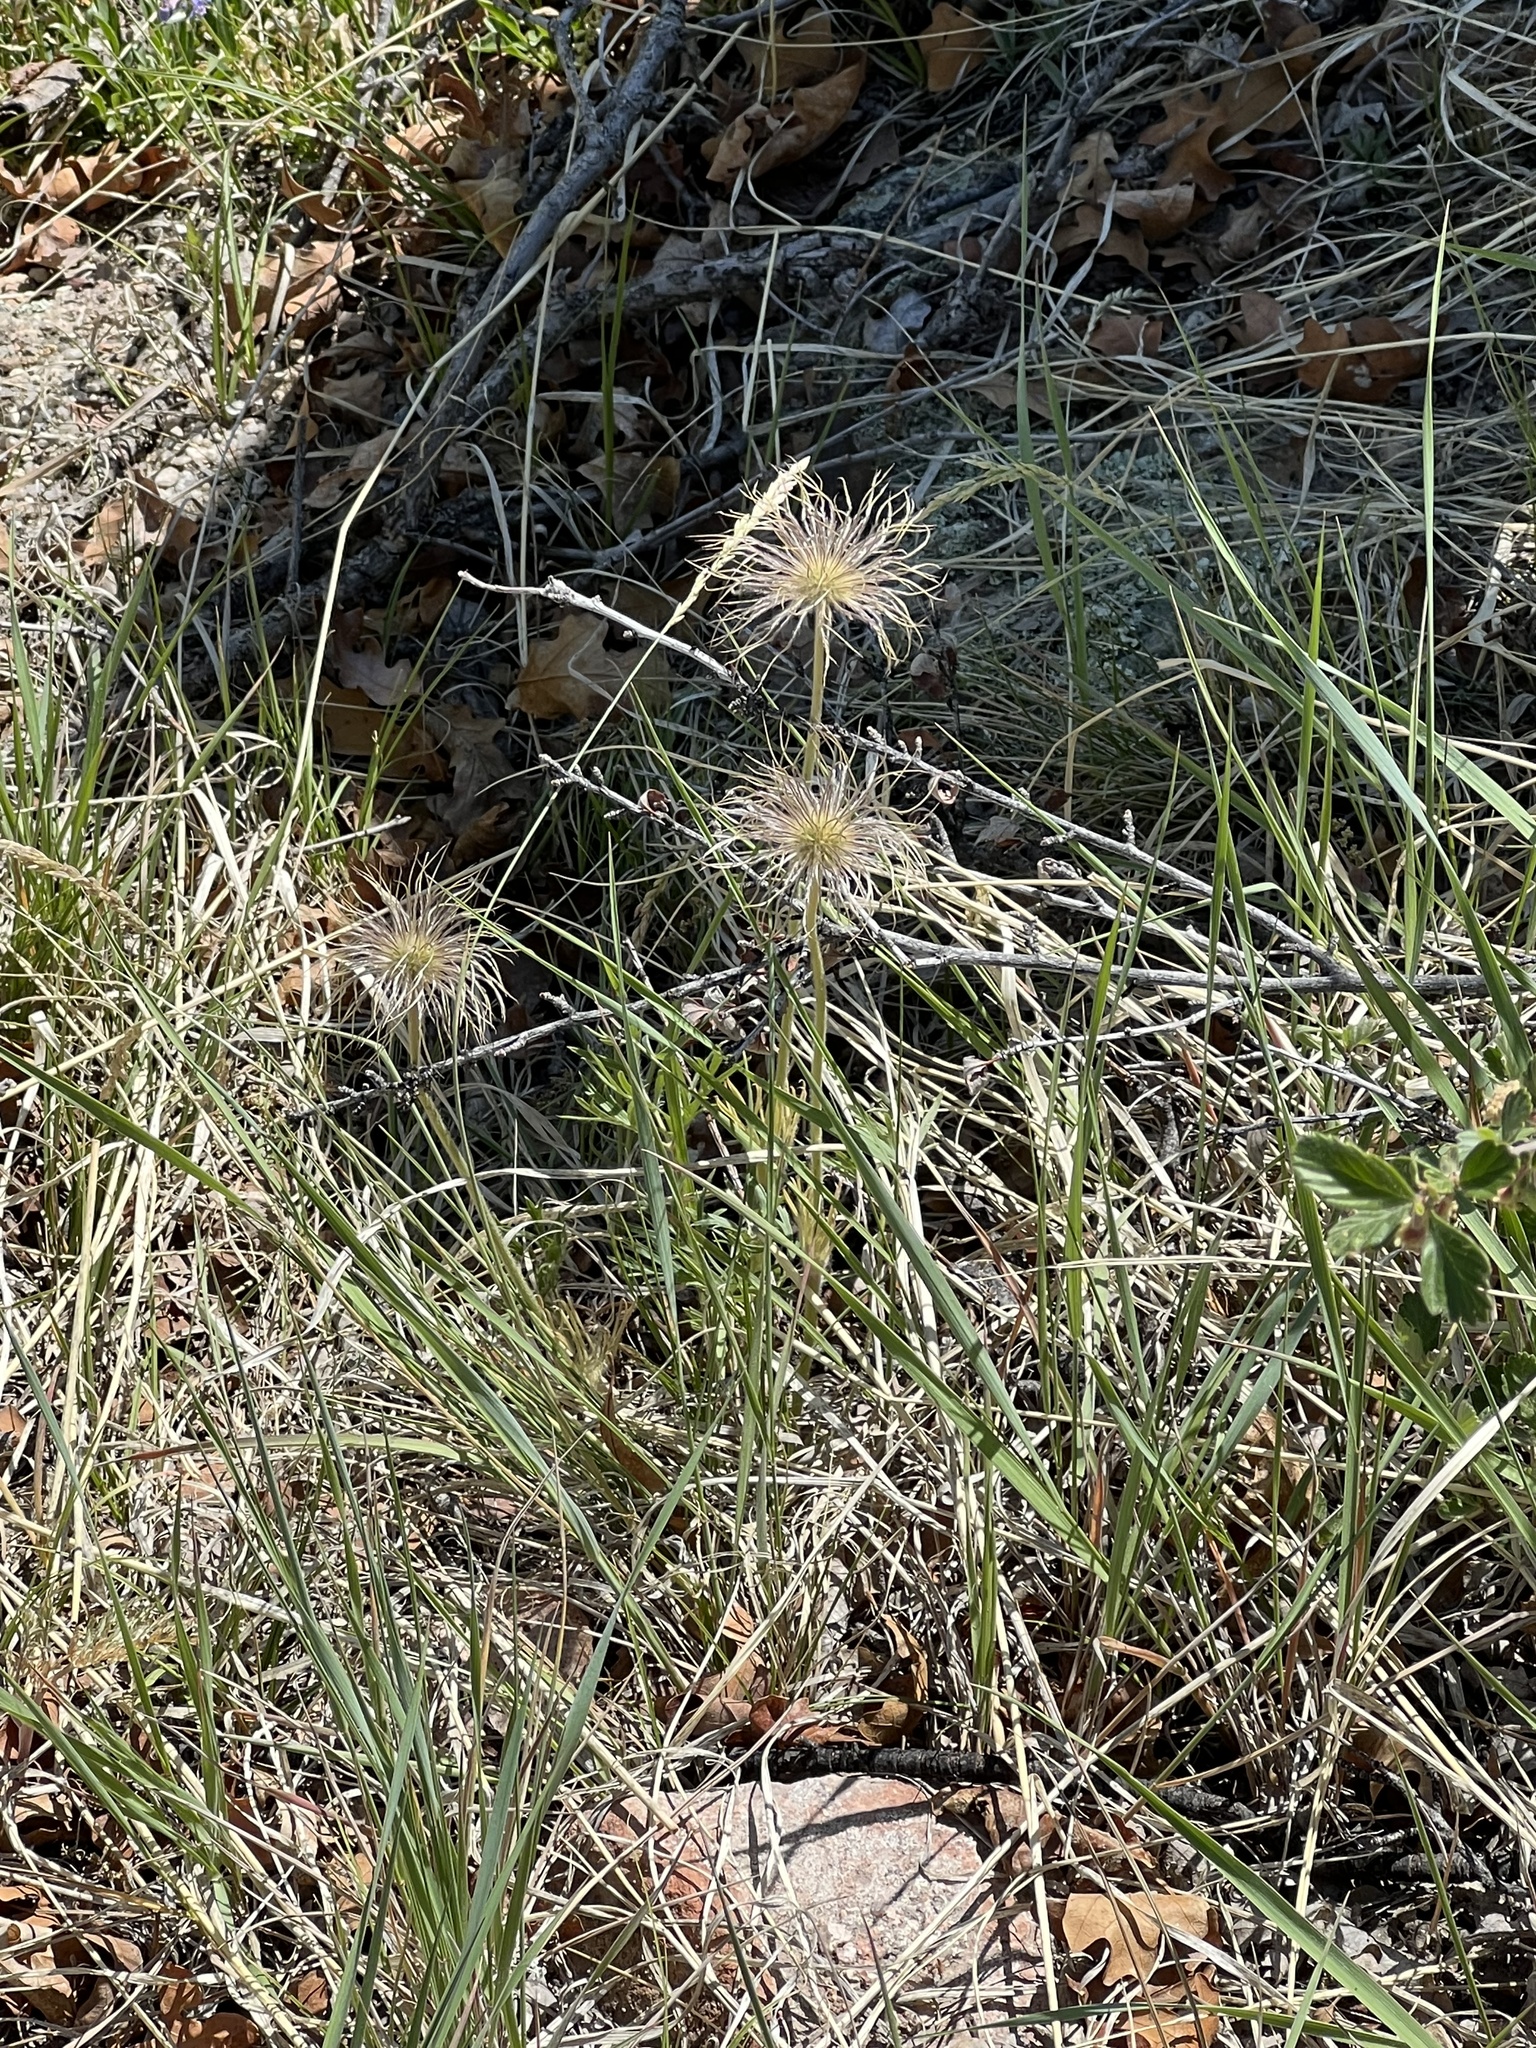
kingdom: Plantae
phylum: Tracheophyta
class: Magnoliopsida
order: Ranunculales
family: Ranunculaceae
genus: Pulsatilla
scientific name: Pulsatilla nuttalliana
